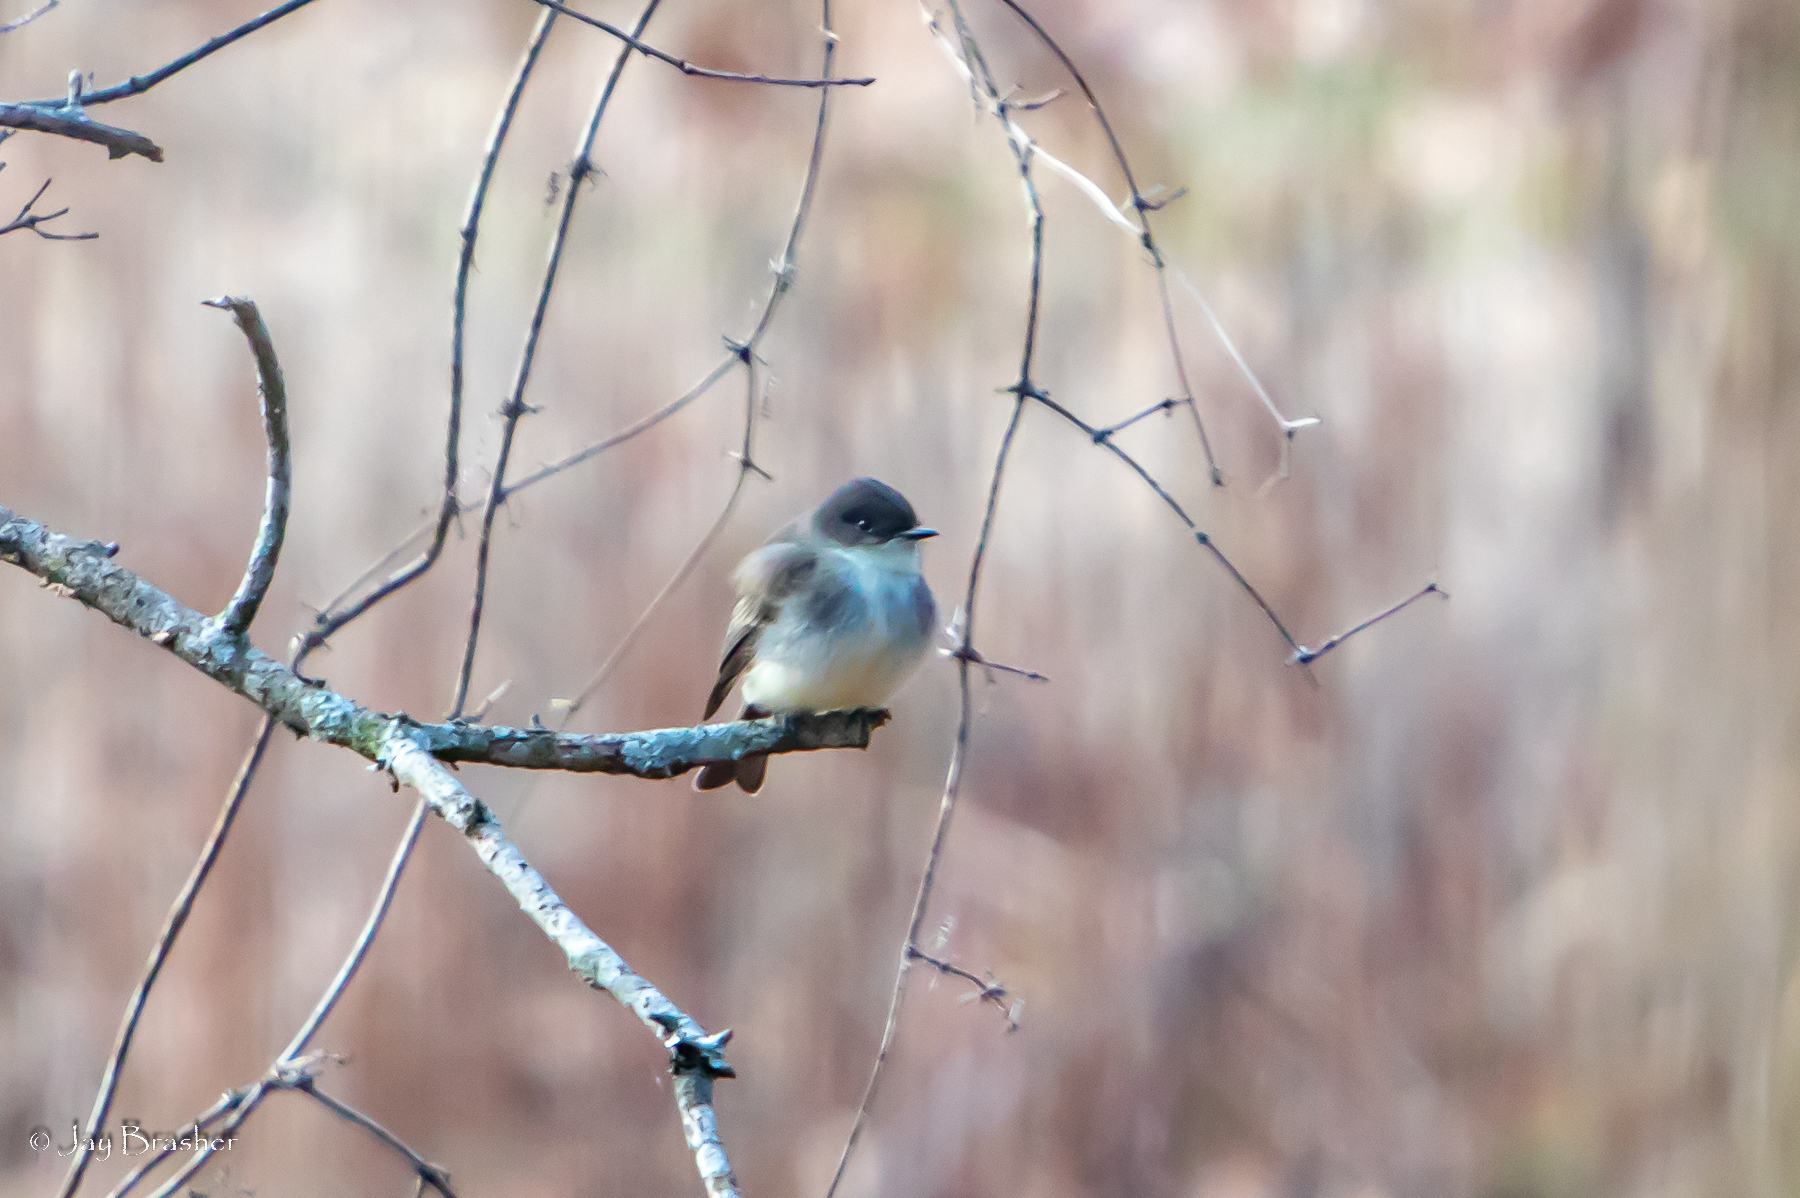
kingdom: Animalia
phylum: Chordata
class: Aves
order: Passeriformes
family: Tyrannidae
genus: Sayornis
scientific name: Sayornis phoebe
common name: Eastern phoebe
